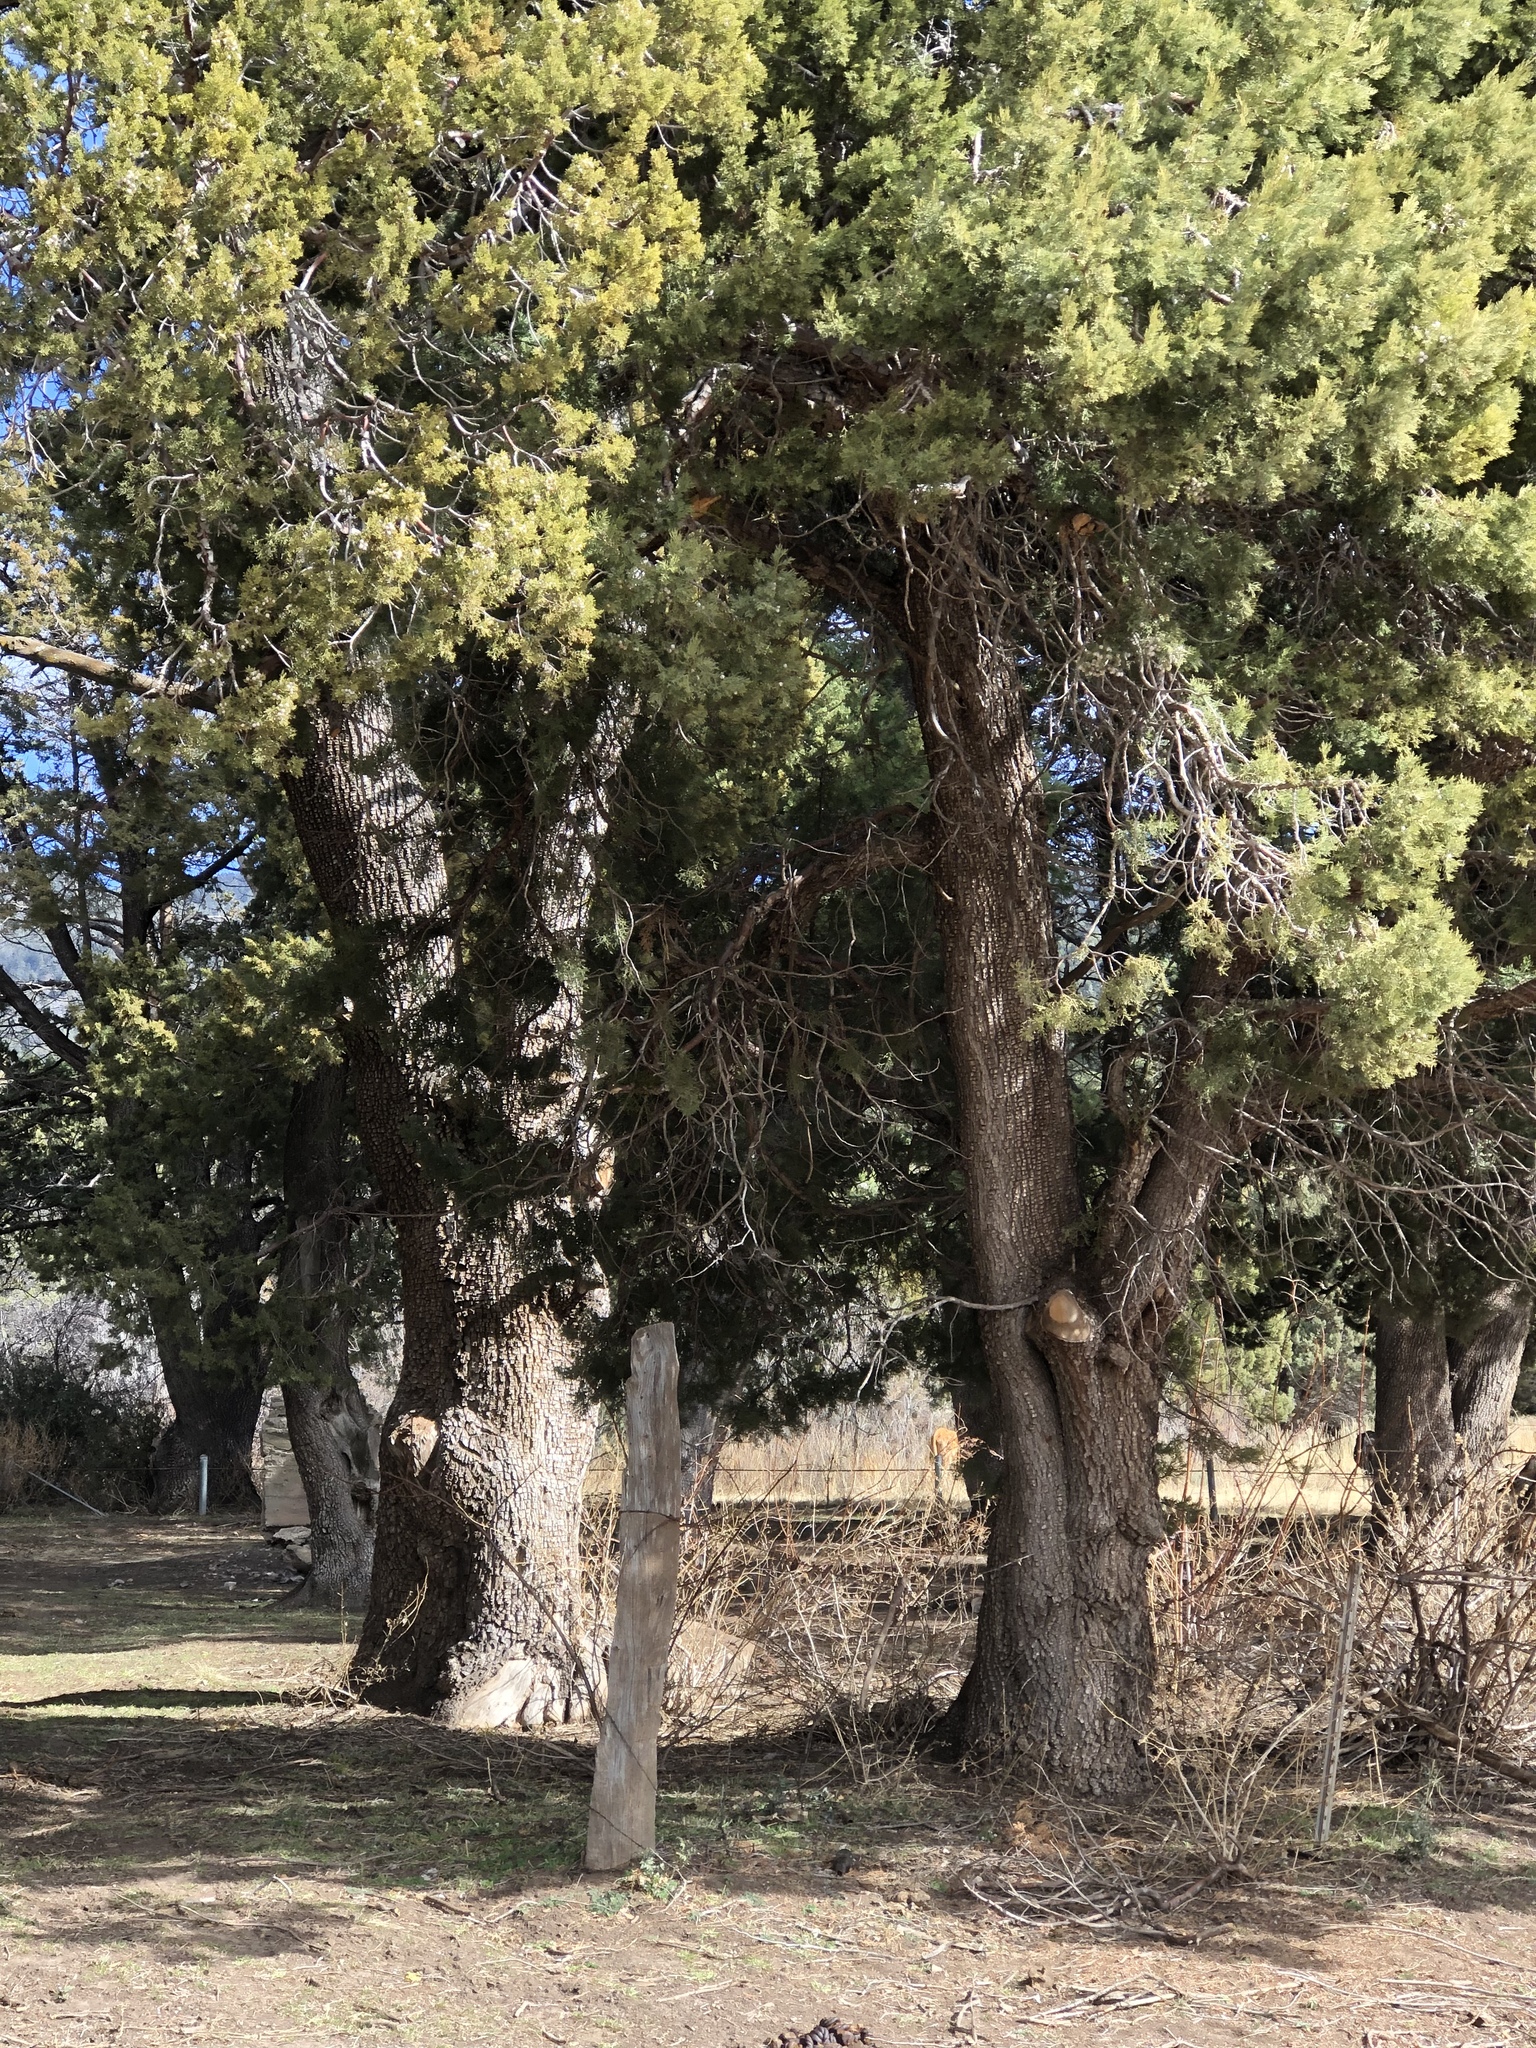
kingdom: Plantae
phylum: Tracheophyta
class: Pinopsida
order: Pinales
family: Cupressaceae
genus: Juniperus
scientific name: Juniperus deppeana
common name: Alligator juniper
